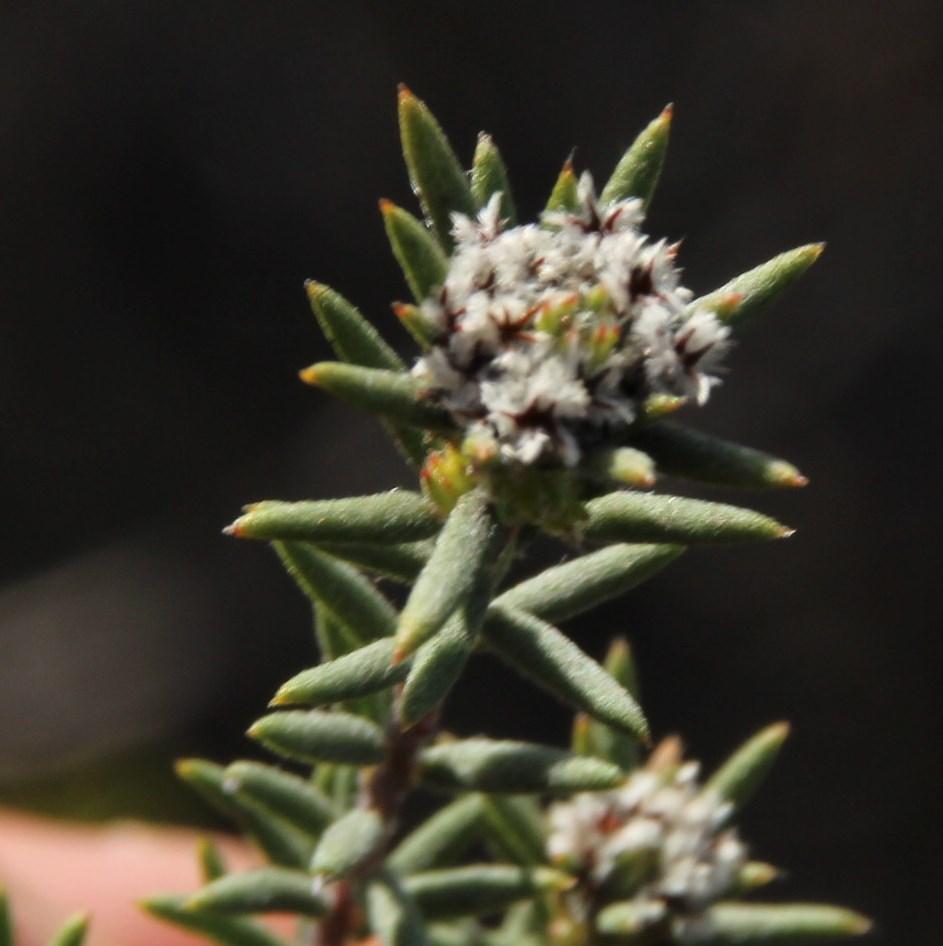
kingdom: Plantae
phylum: Tracheophyta
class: Magnoliopsida
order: Rosales
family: Rhamnaceae
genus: Phylica
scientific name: Phylica vulgaris
